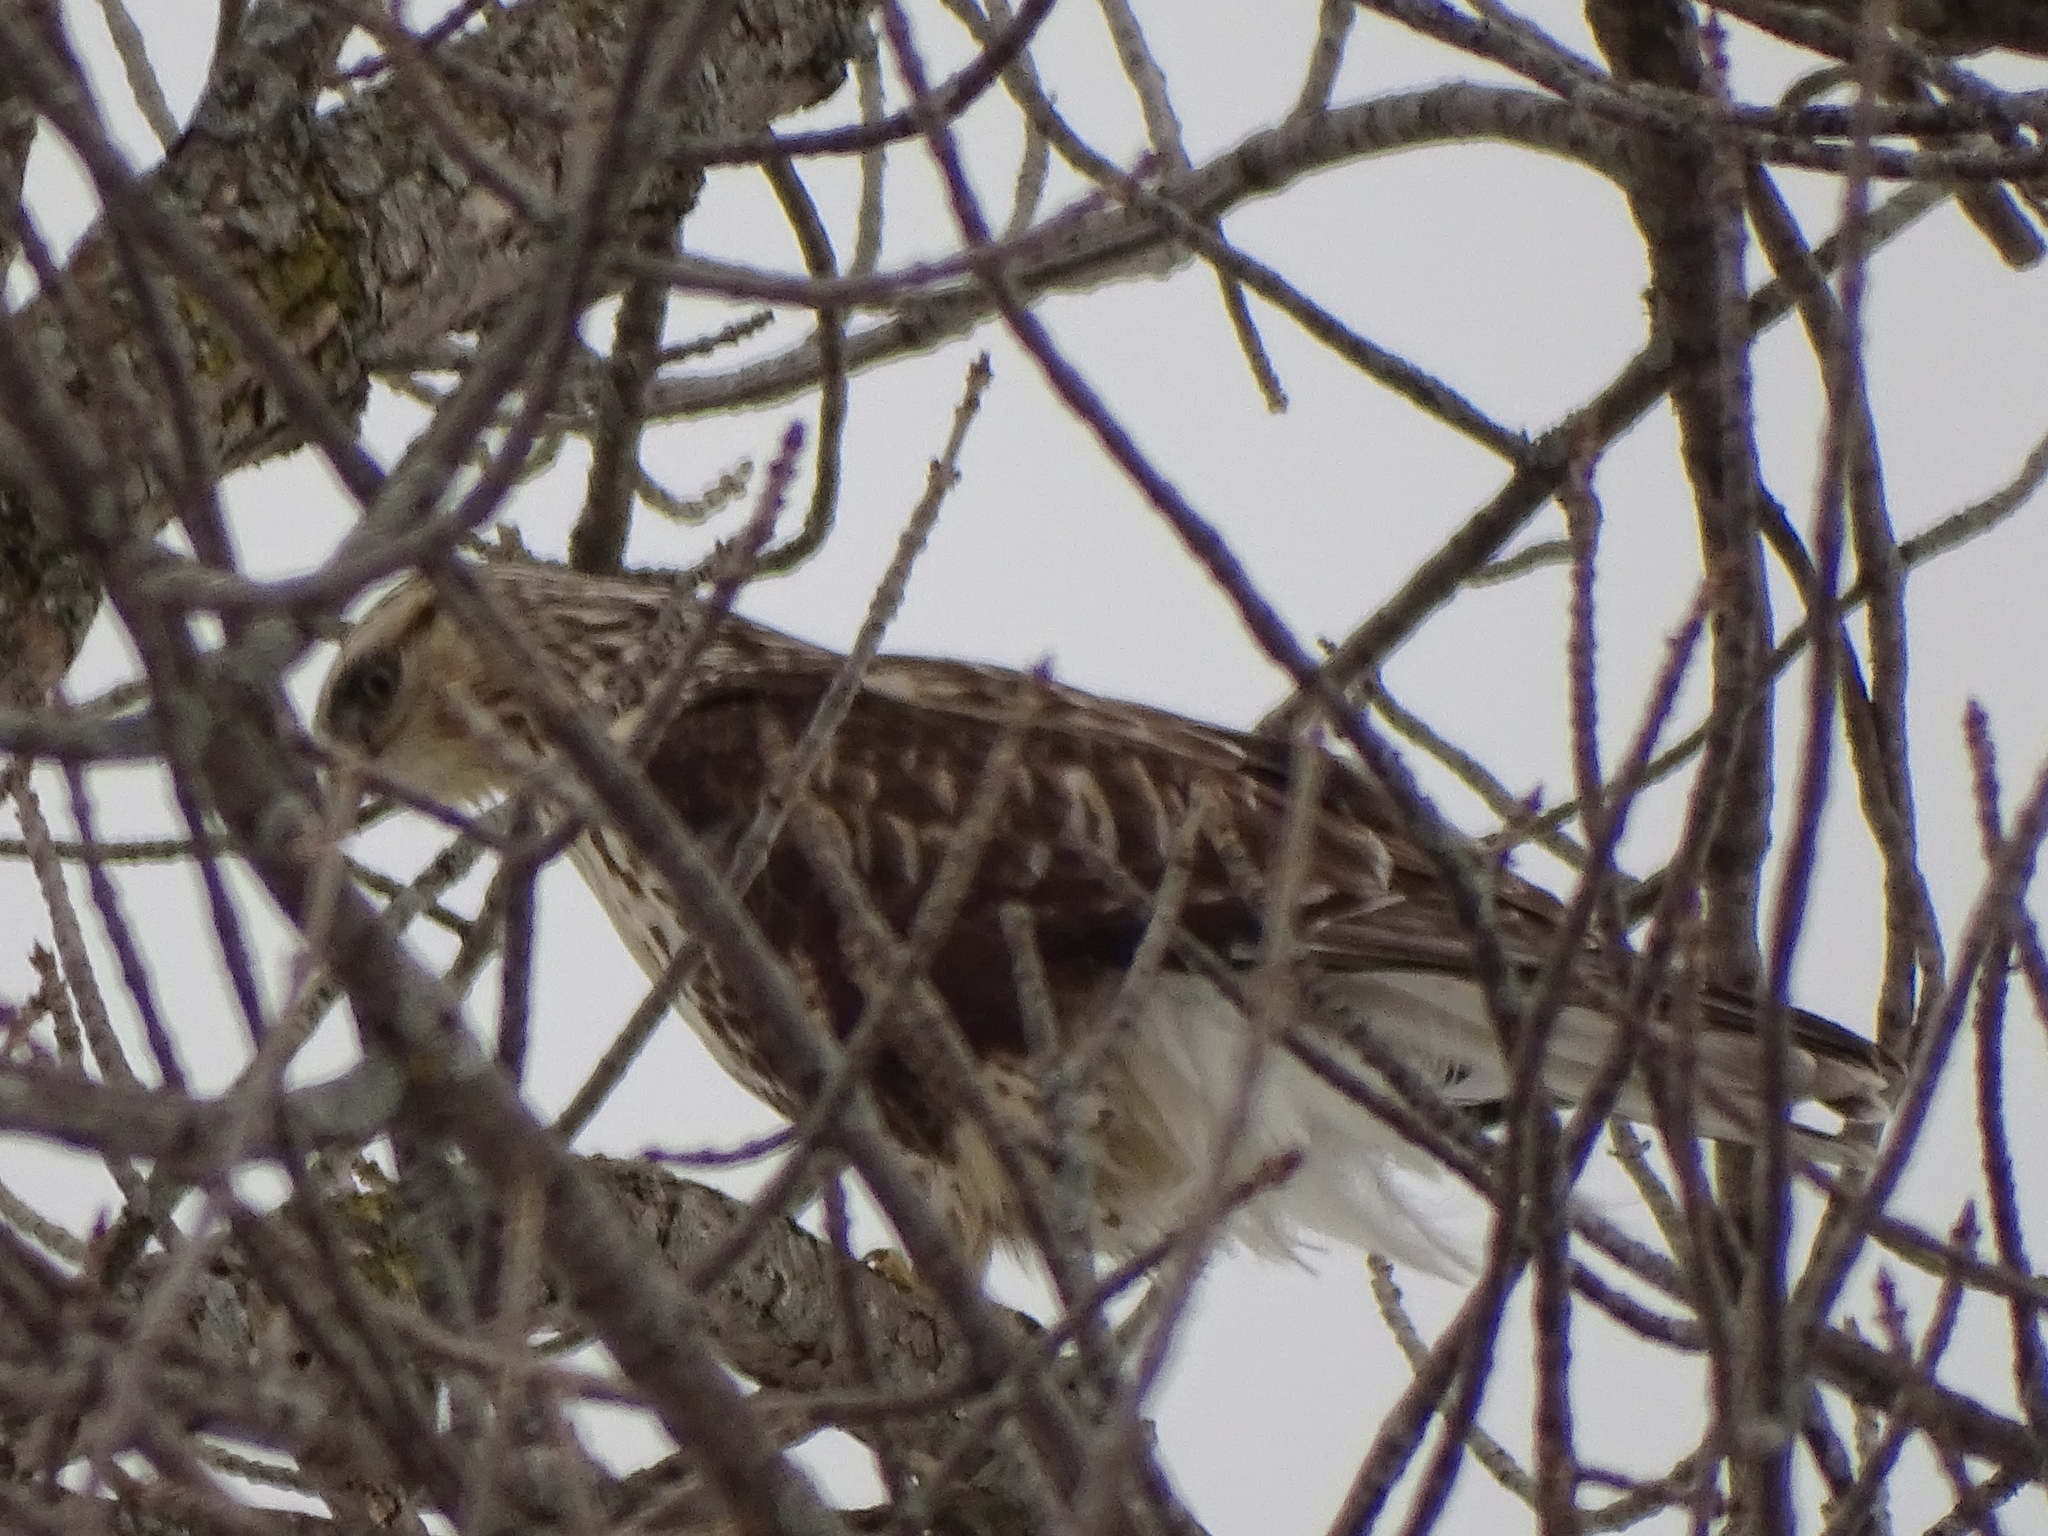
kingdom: Animalia
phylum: Chordata
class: Aves
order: Accipitriformes
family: Accipitridae
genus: Buteo
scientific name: Buteo lagopus
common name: Rough-legged buzzard
